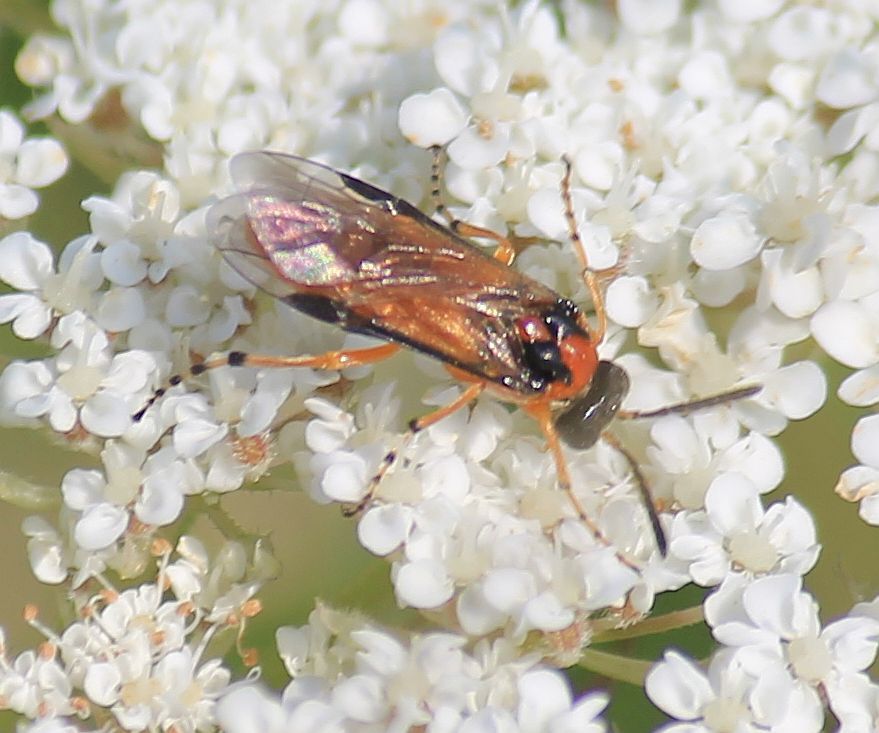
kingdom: Animalia
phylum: Arthropoda
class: Insecta
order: Hymenoptera
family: Tenthredinidae
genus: Athalia
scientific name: Athalia rosae
